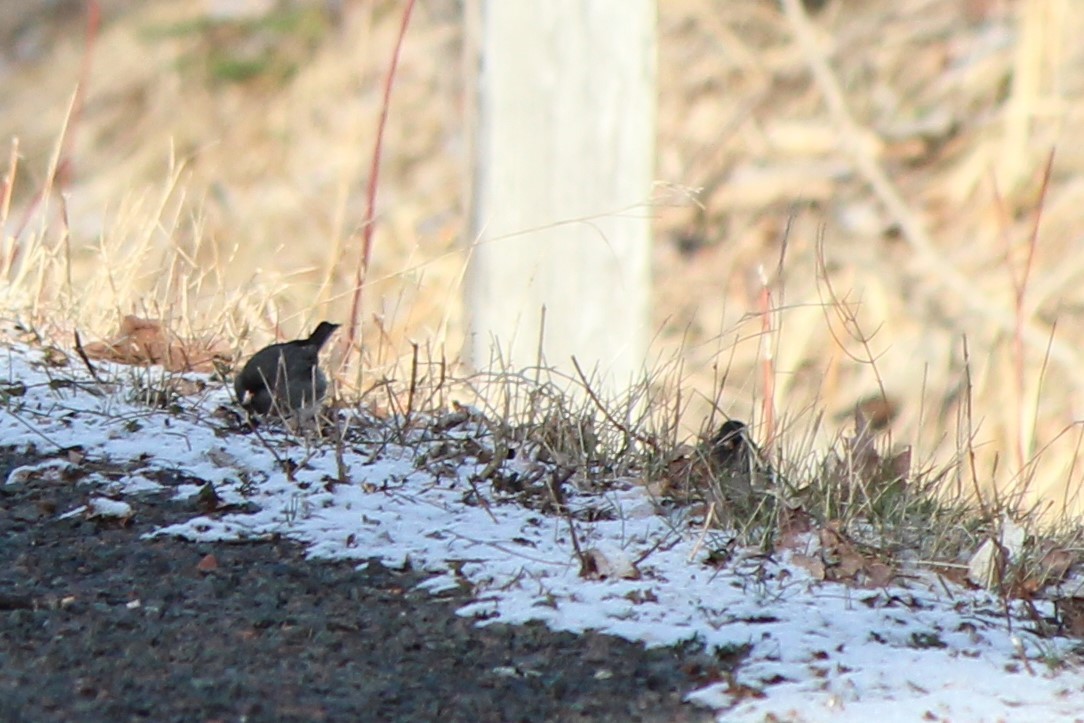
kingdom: Animalia
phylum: Chordata
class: Aves
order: Passeriformes
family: Passerellidae
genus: Junco
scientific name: Junco hyemalis
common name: Dark-eyed junco
